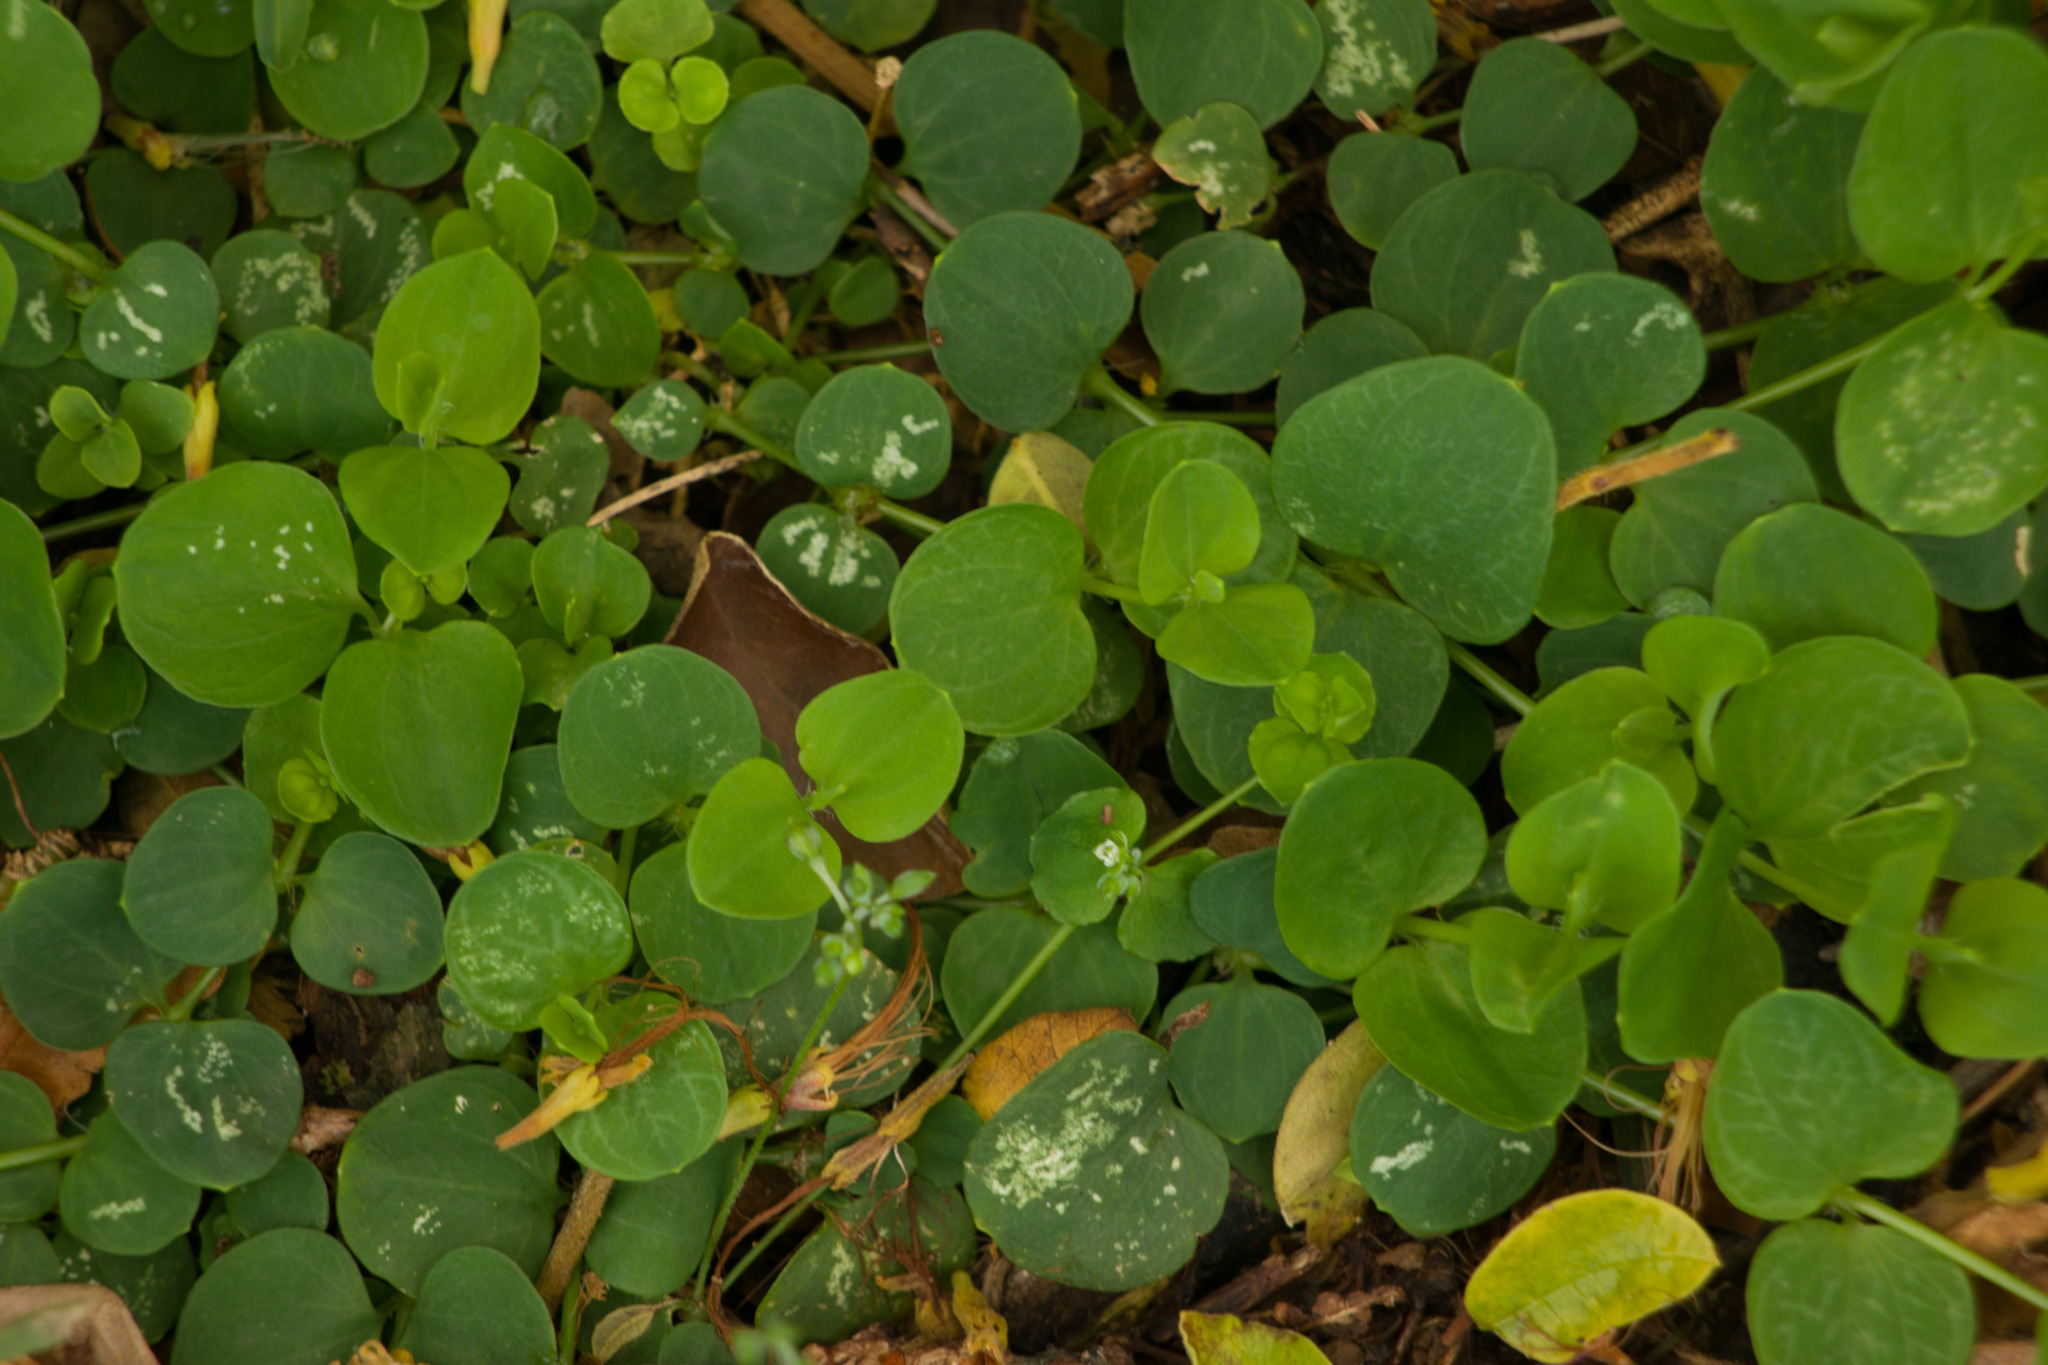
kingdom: Plantae
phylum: Tracheophyta
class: Magnoliopsida
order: Caryophyllales
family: Caryophyllaceae
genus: Drymaria
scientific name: Drymaria cordata
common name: Whitesnow
